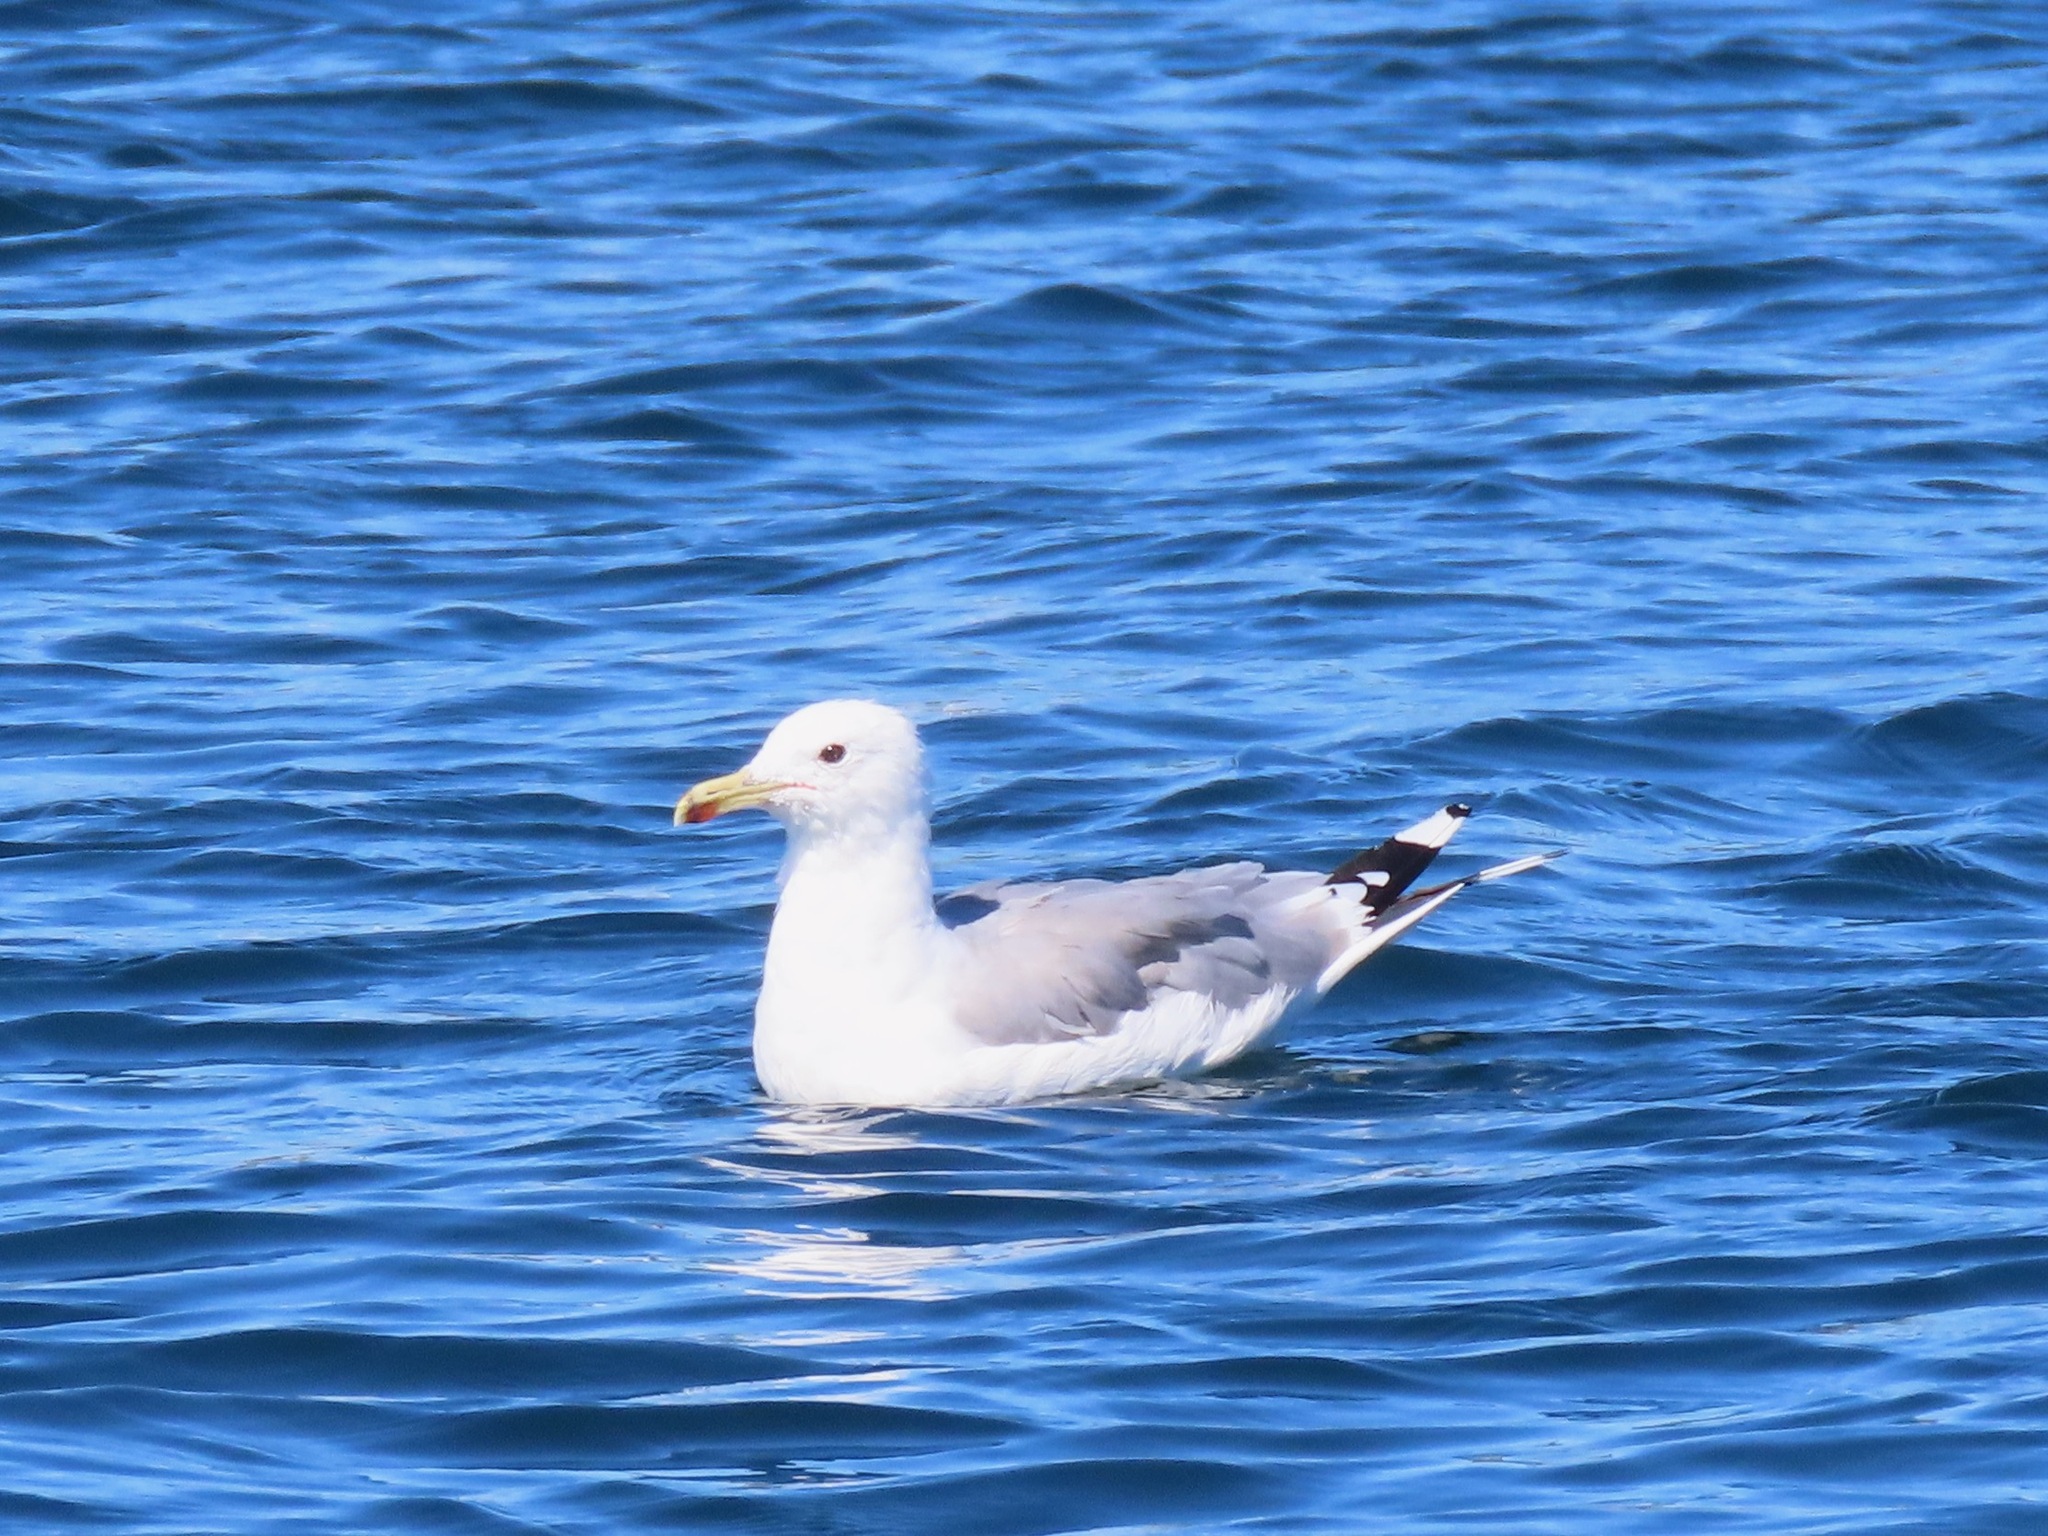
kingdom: Animalia
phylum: Chordata
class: Aves
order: Charadriiformes
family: Laridae
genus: Larus
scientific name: Larus californicus
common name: California gull
